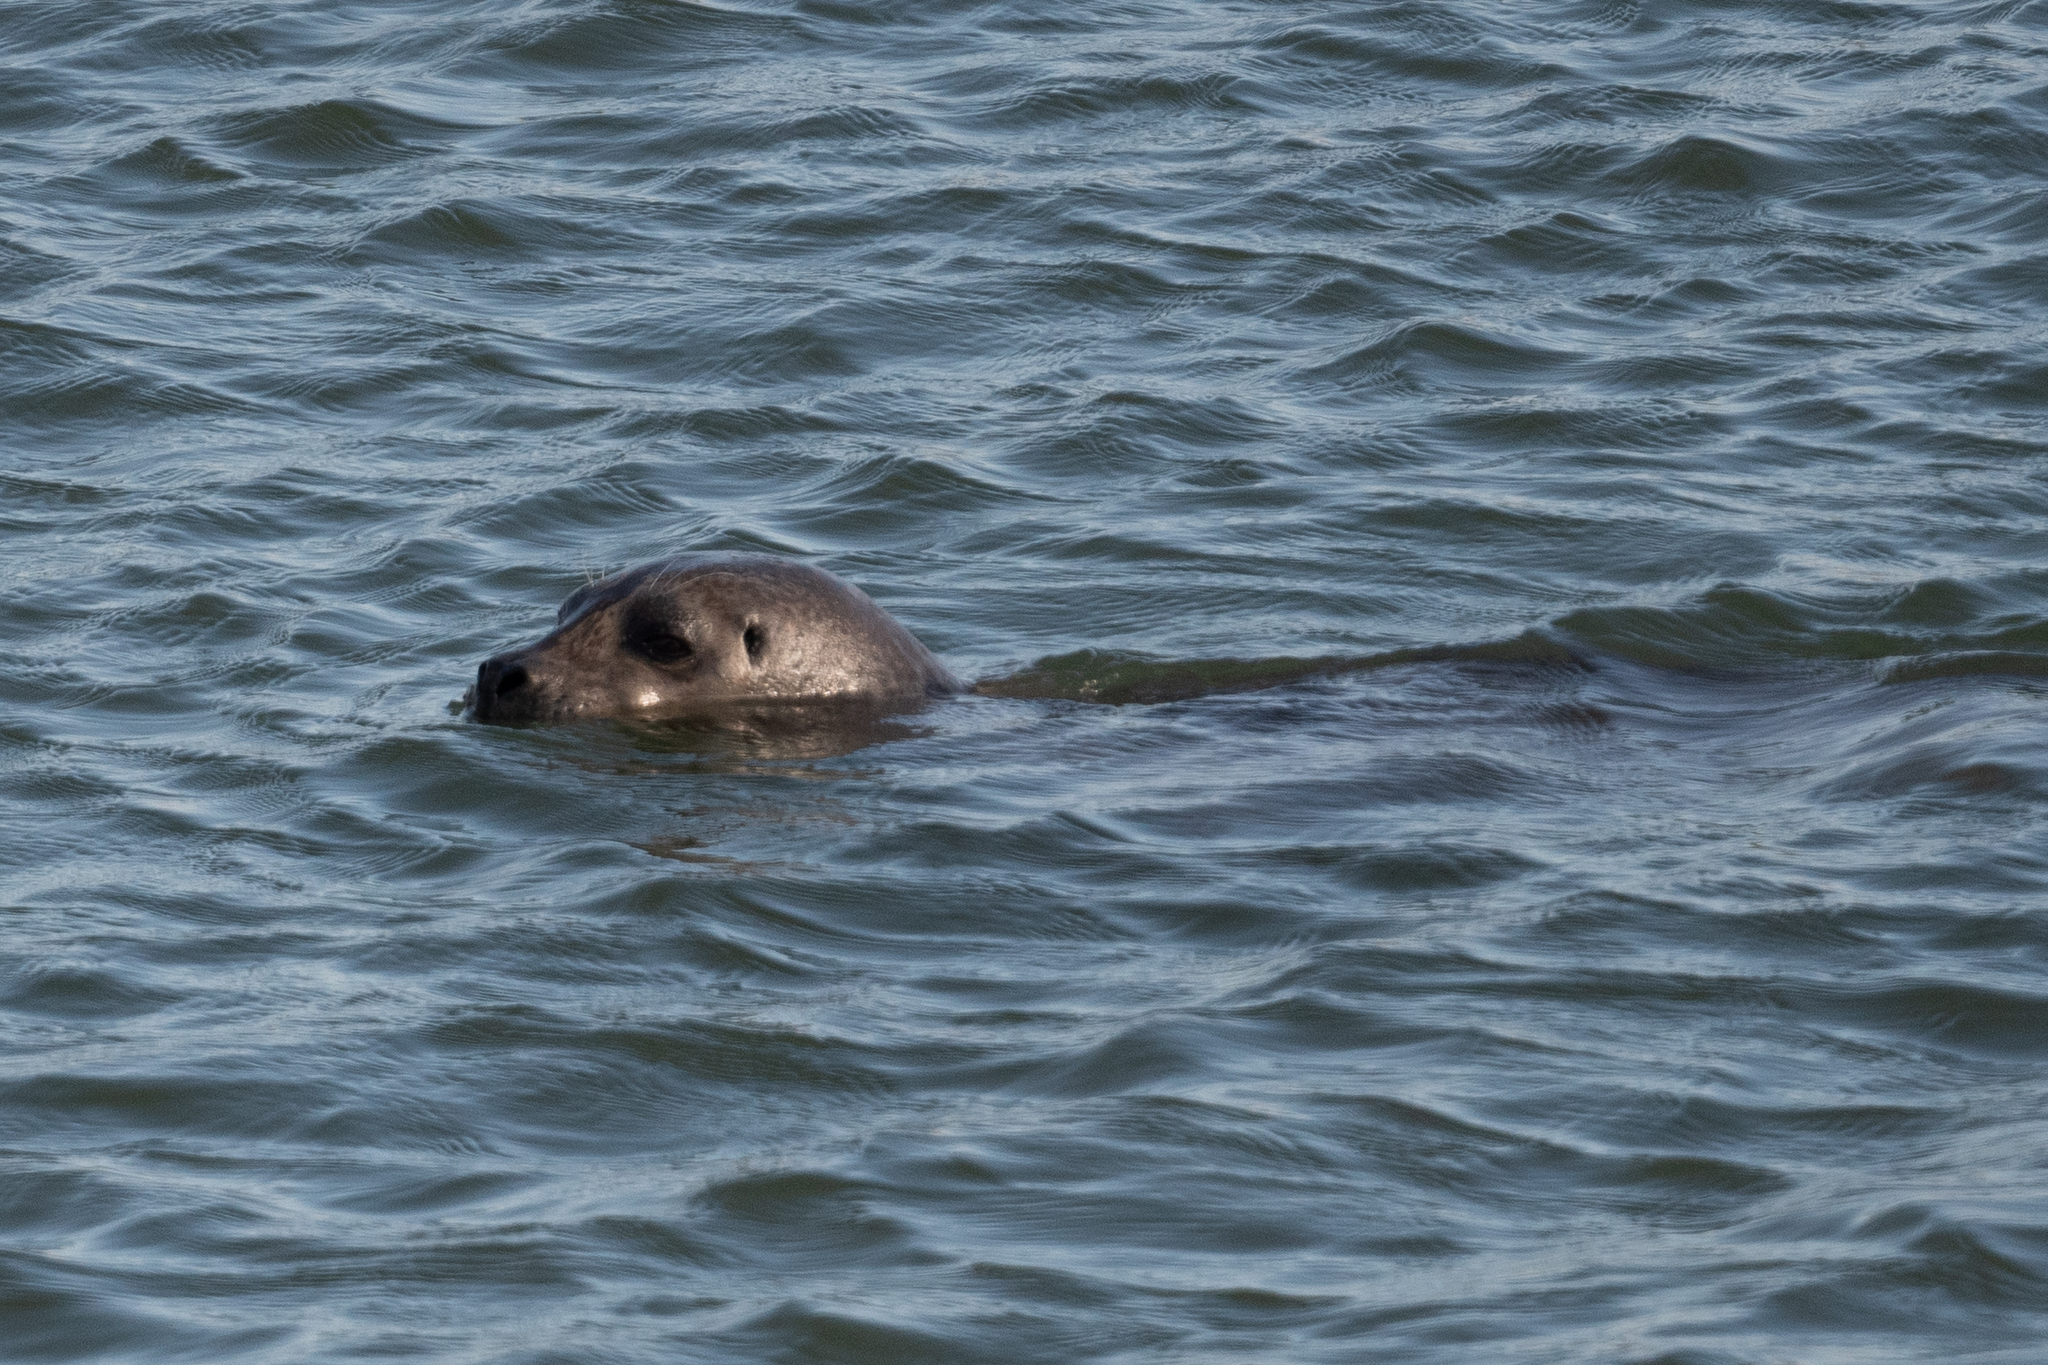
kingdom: Animalia
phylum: Chordata
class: Mammalia
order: Carnivora
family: Phocidae
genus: Phoca
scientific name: Phoca vitulina
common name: Harbor seal
